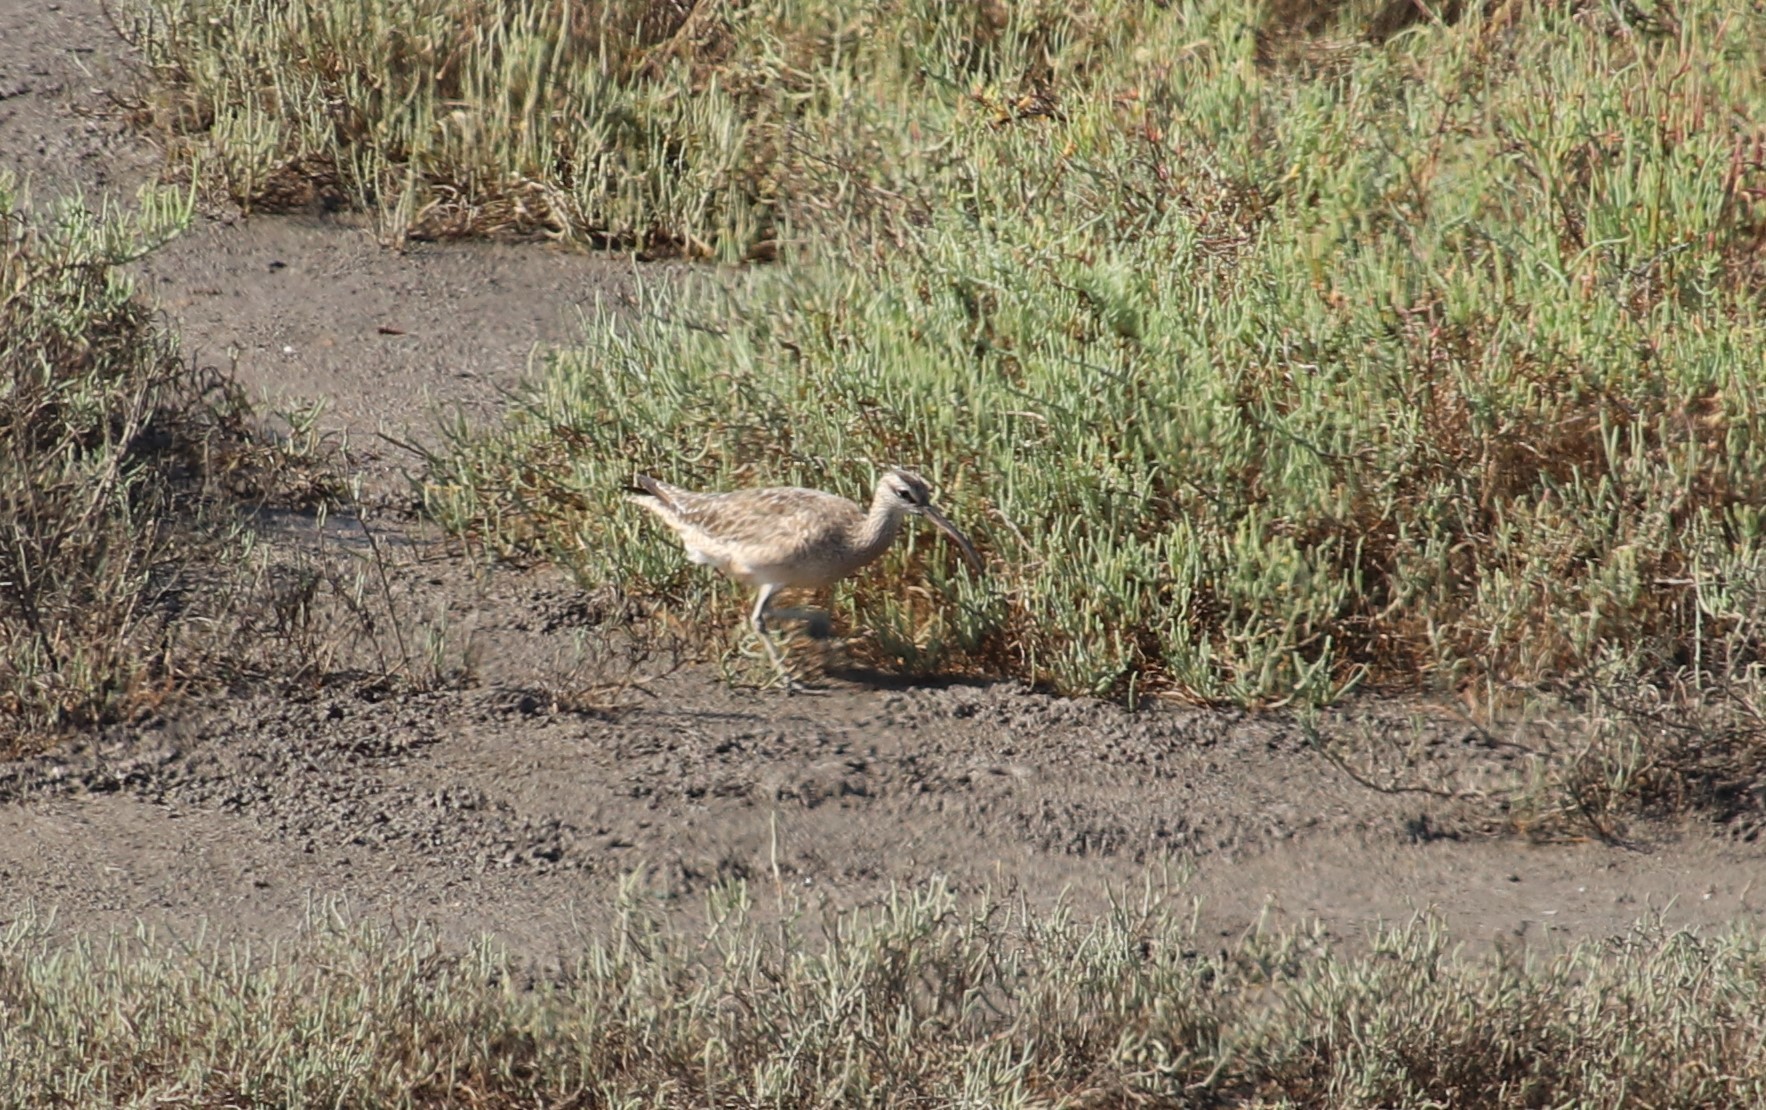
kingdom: Animalia
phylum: Chordata
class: Aves
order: Charadriiformes
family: Scolopacidae
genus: Numenius
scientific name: Numenius phaeopus
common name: Whimbrel
